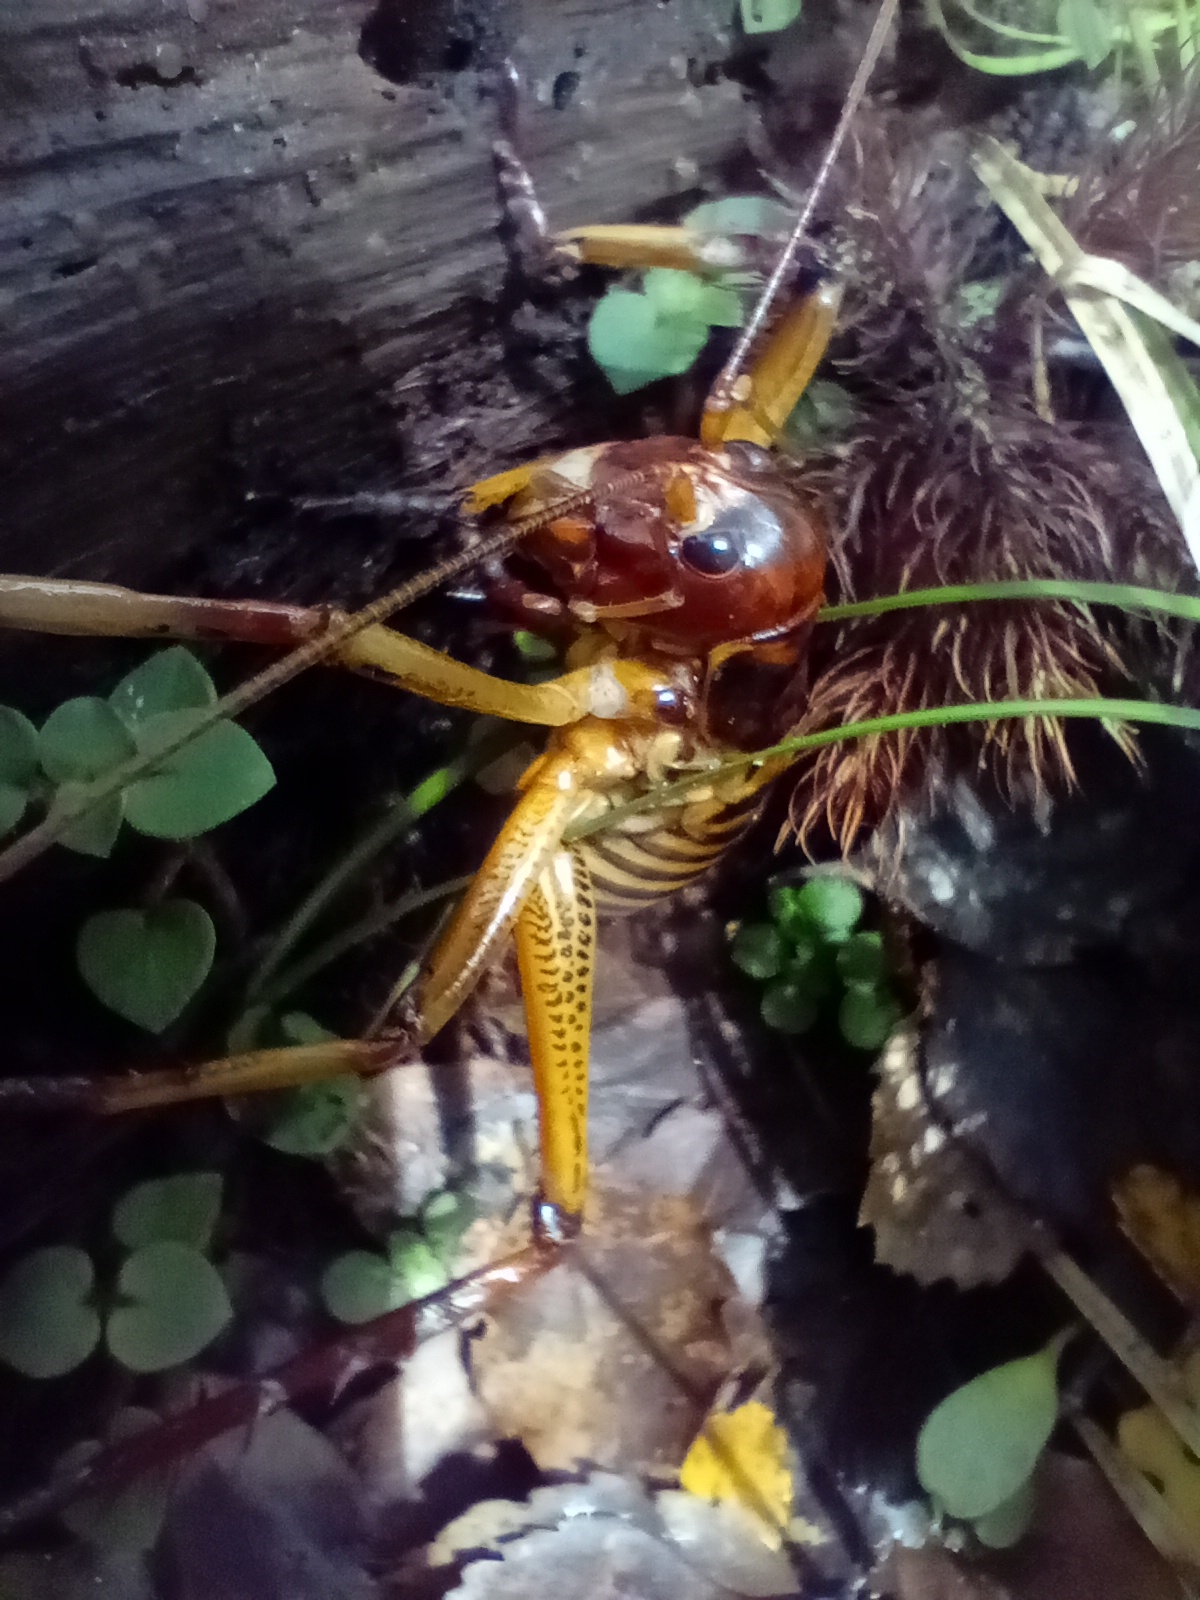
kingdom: Animalia
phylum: Arthropoda
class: Insecta
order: Orthoptera
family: Anostostomatidae
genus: Hemideina
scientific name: Hemideina crassidens
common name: Wellington tree weta
